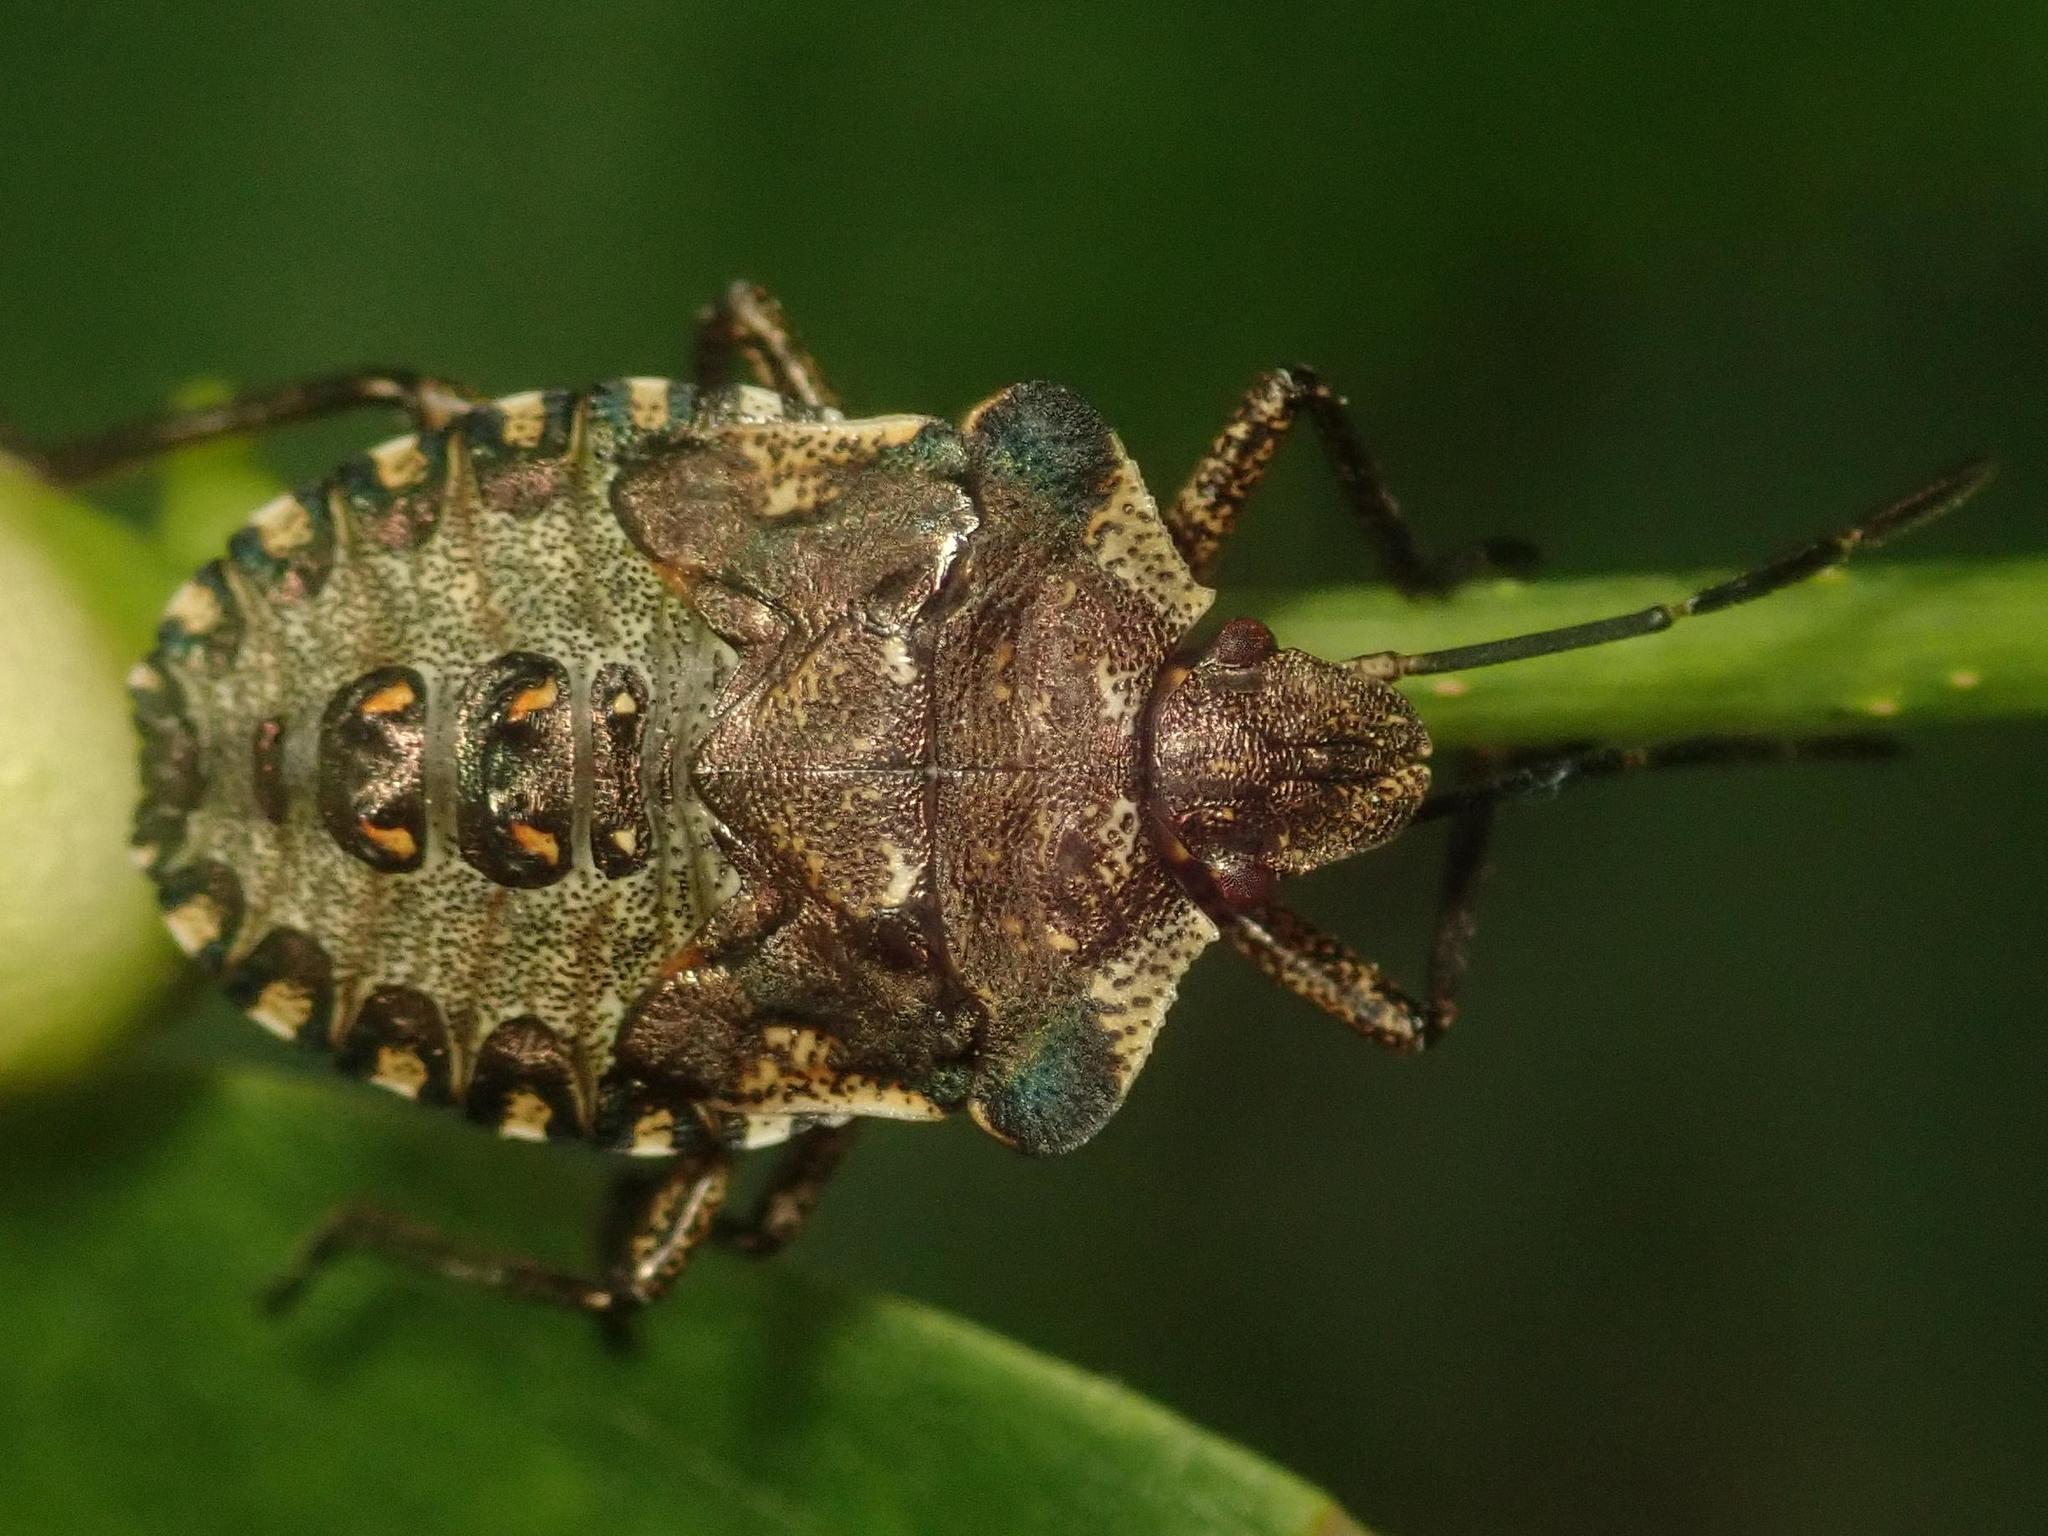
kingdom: Animalia
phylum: Arthropoda
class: Insecta
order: Hemiptera
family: Pentatomidae
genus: Pentatoma
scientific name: Pentatoma rufipes
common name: Forest bug
